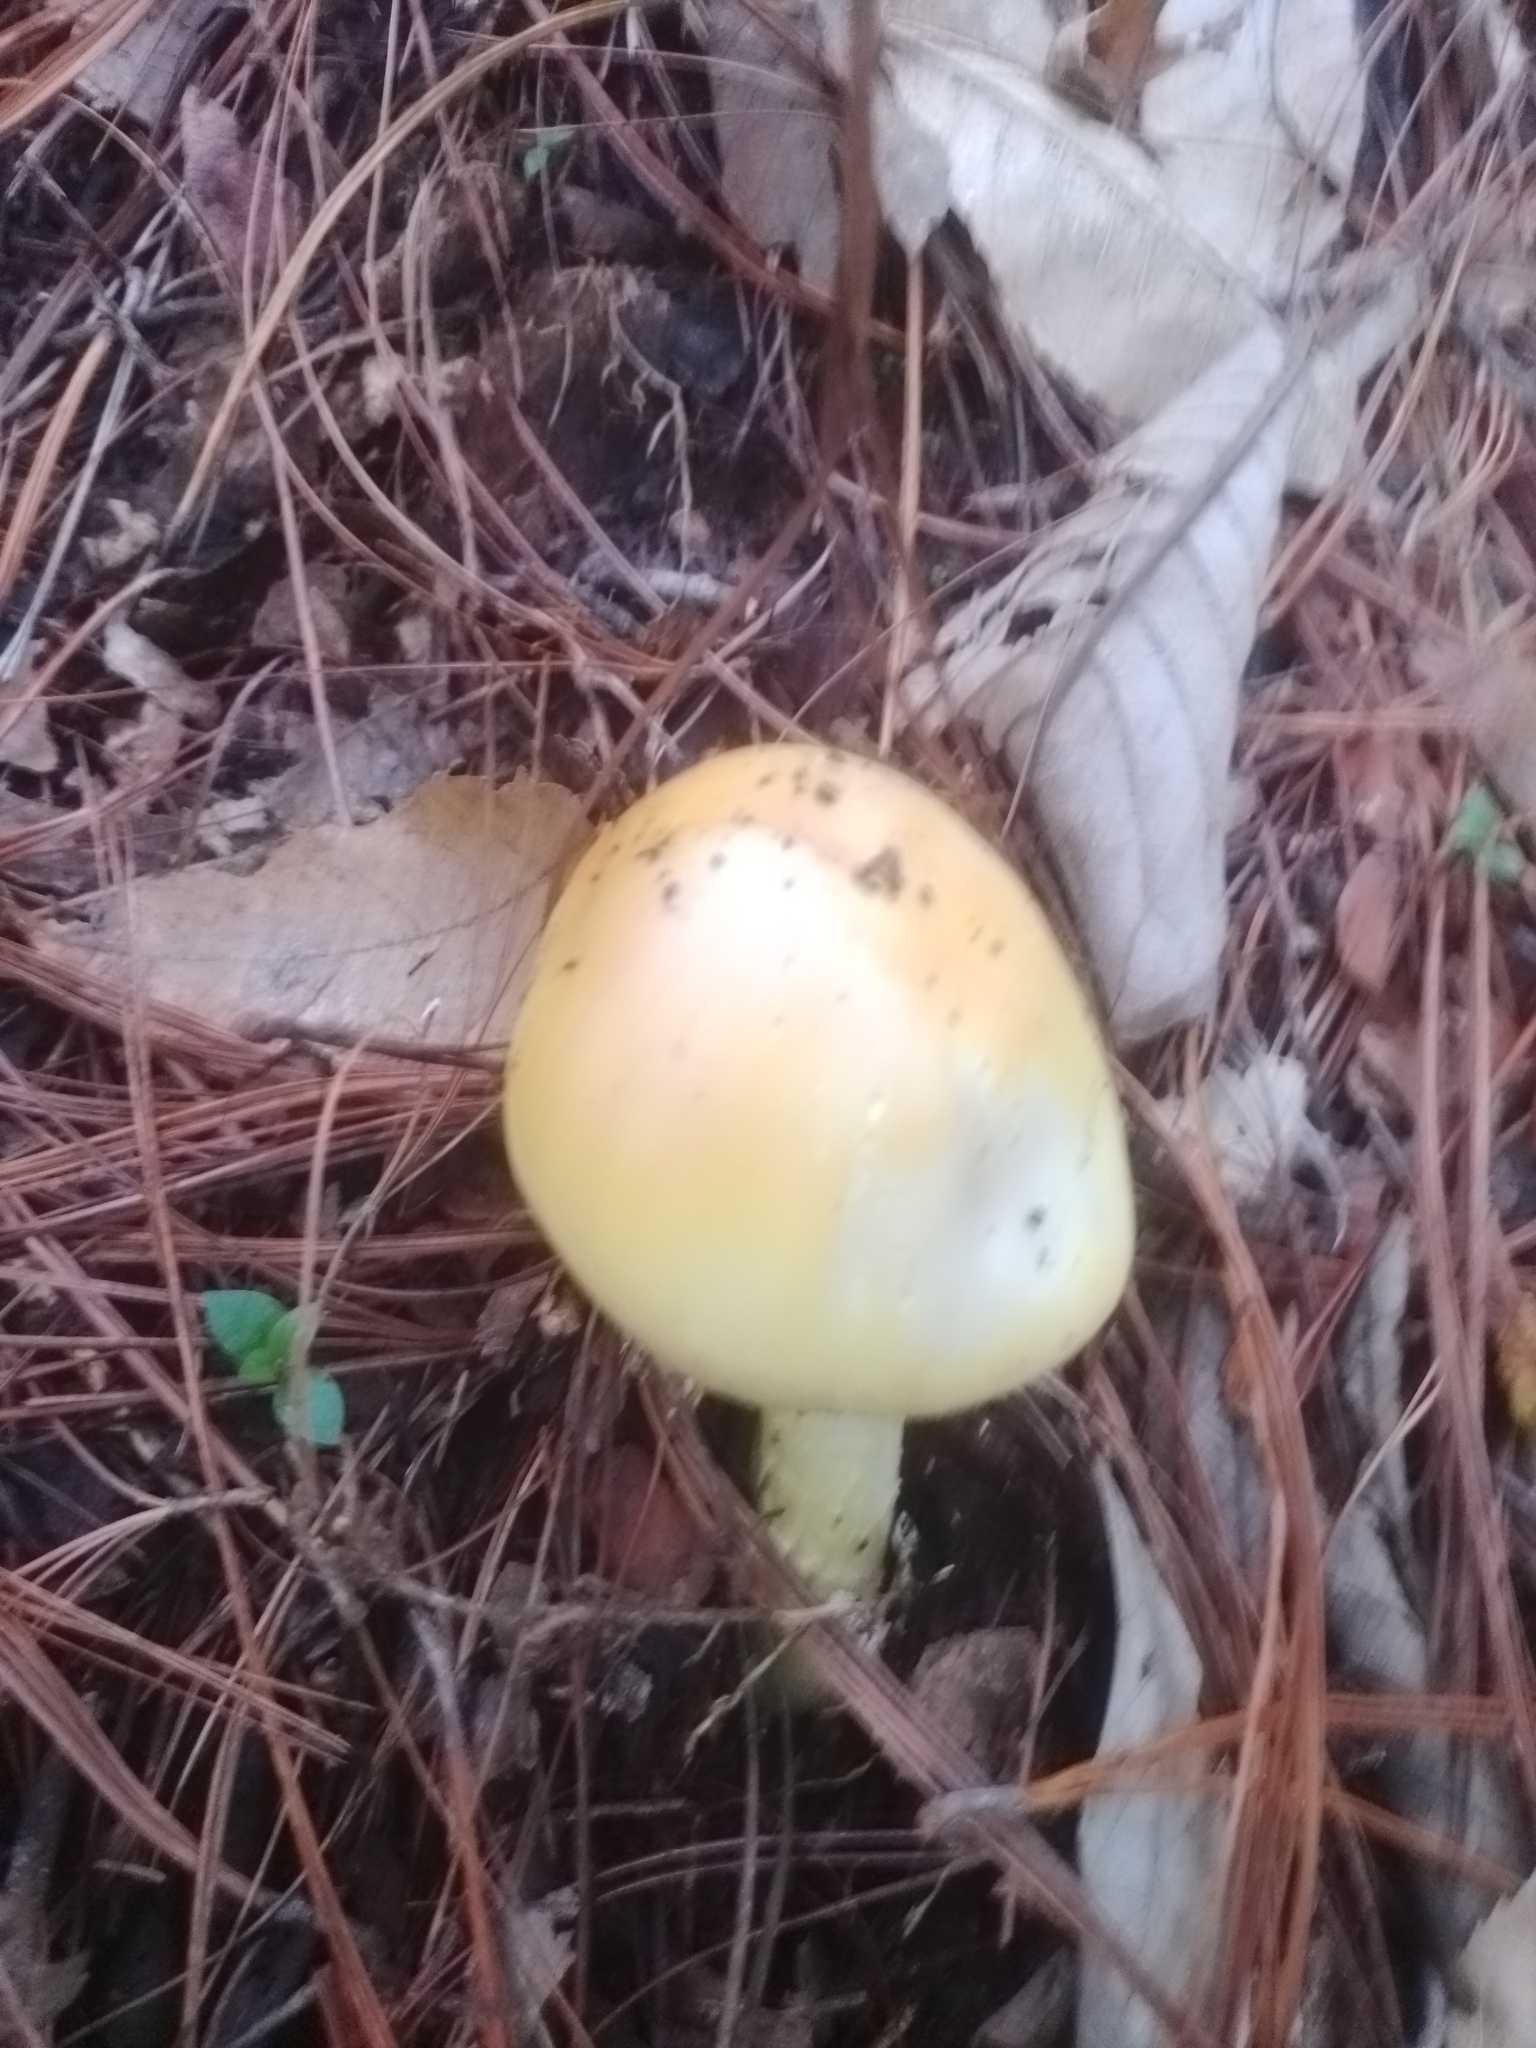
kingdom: Fungi
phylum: Basidiomycota
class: Agaricomycetes
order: Agaricales
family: Amanitaceae
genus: Amanita
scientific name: Amanita basii
